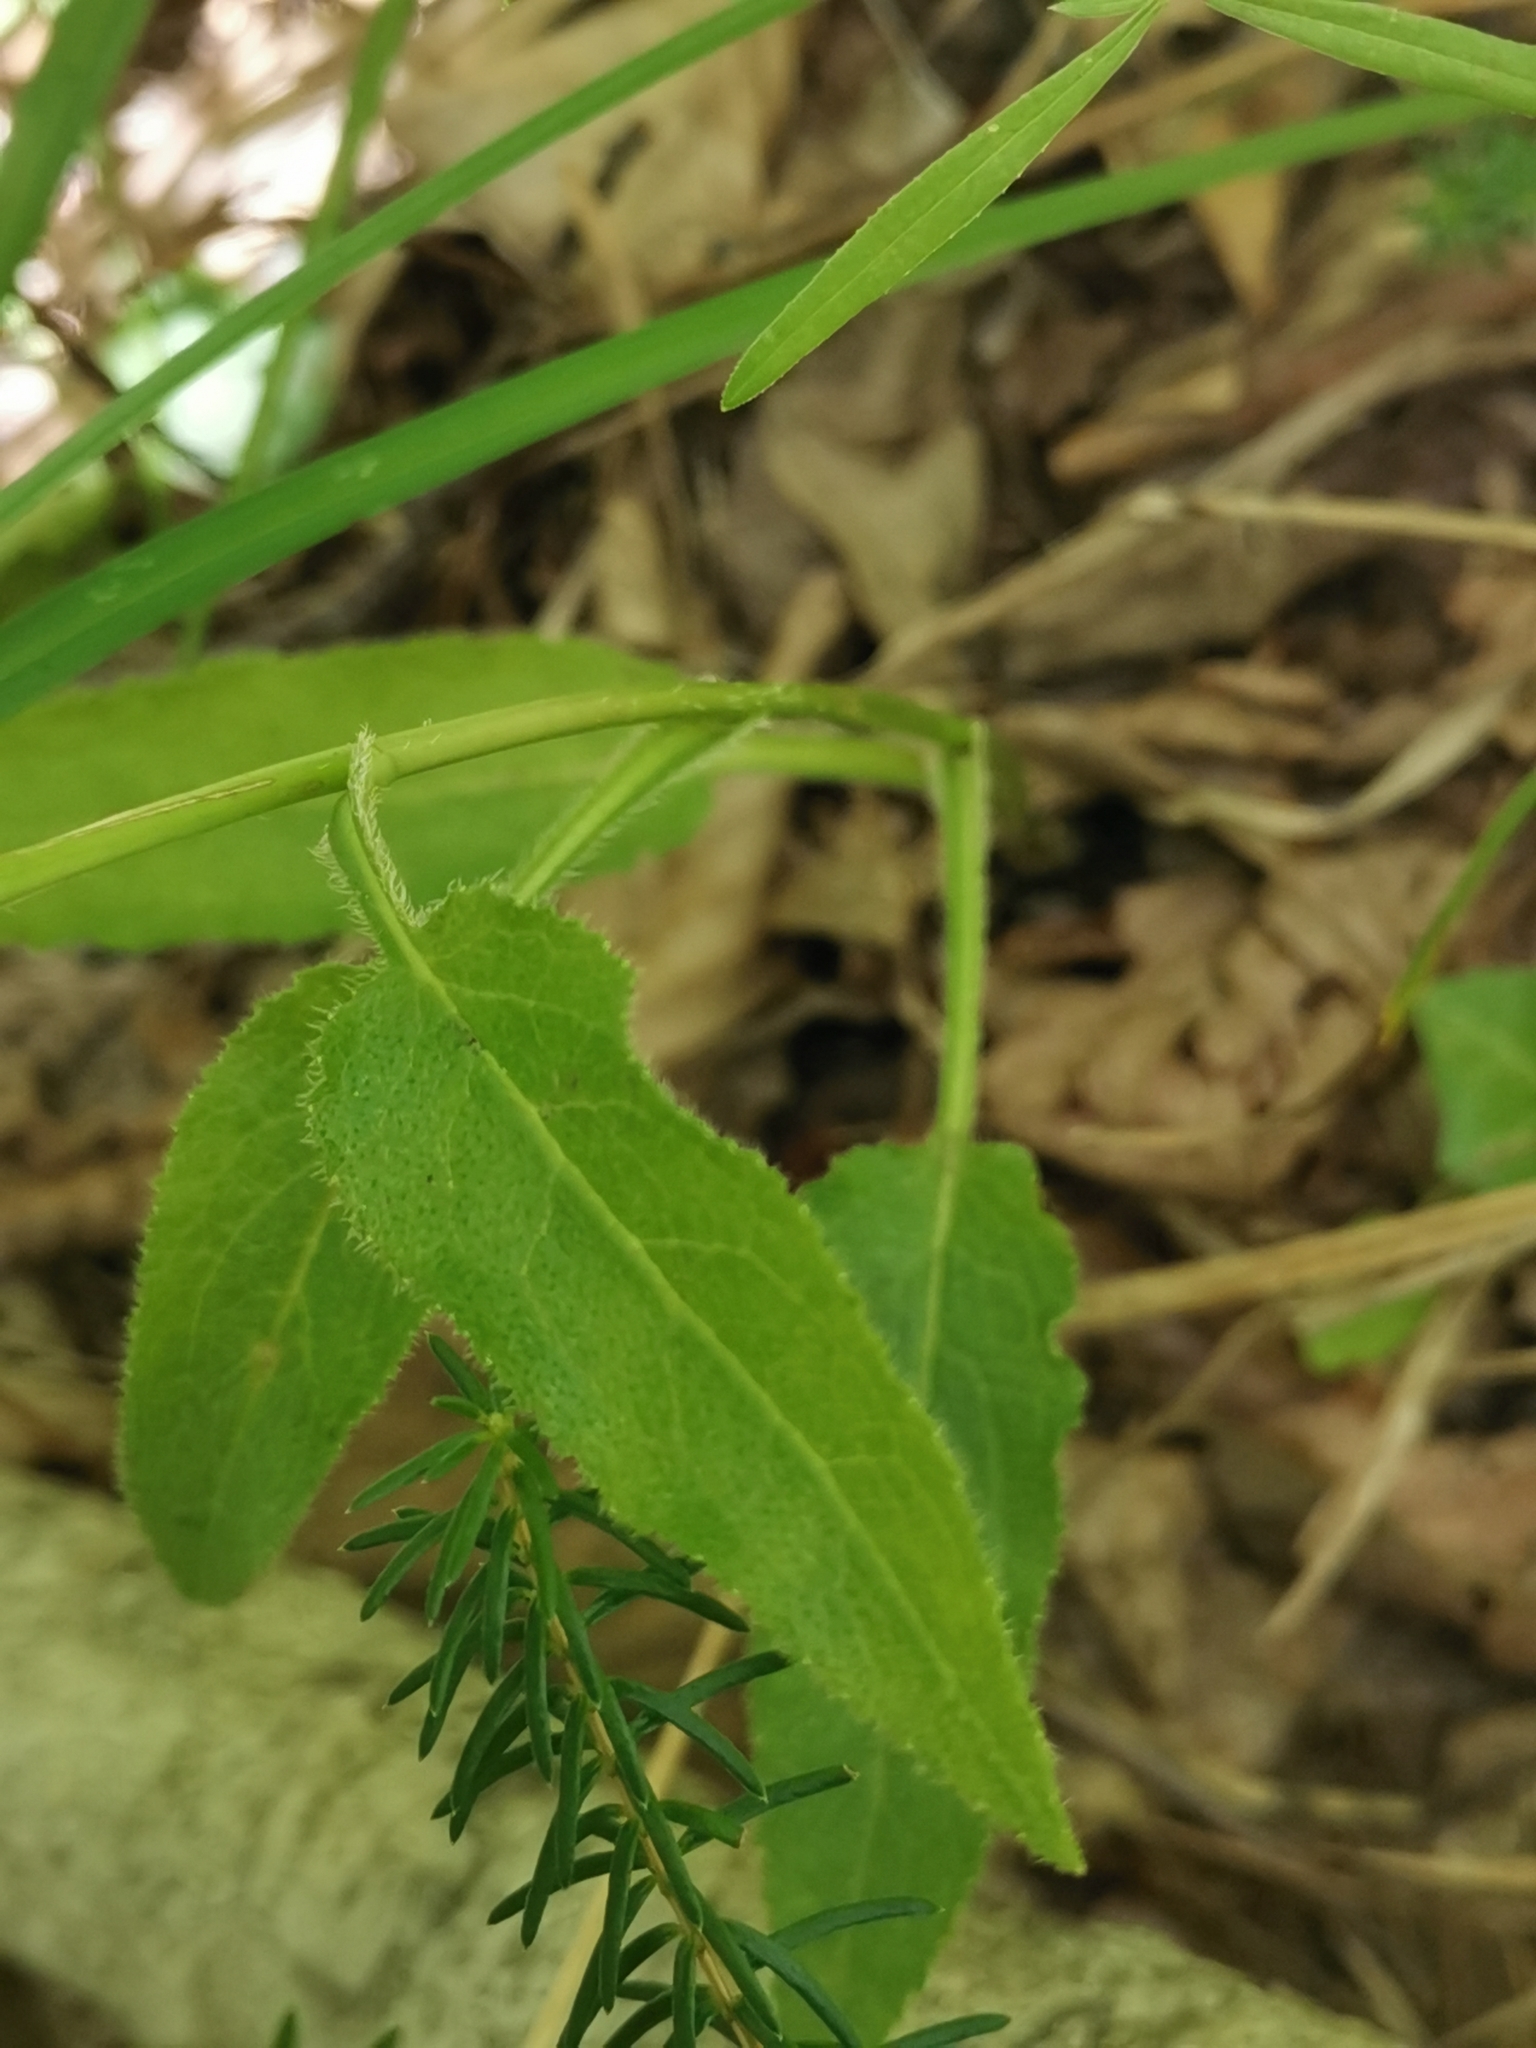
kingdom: Plantae
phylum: Tracheophyta
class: Magnoliopsida
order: Asterales
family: Campanulaceae
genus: Campanula
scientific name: Campanula glomerata
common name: Clustered bellflower
